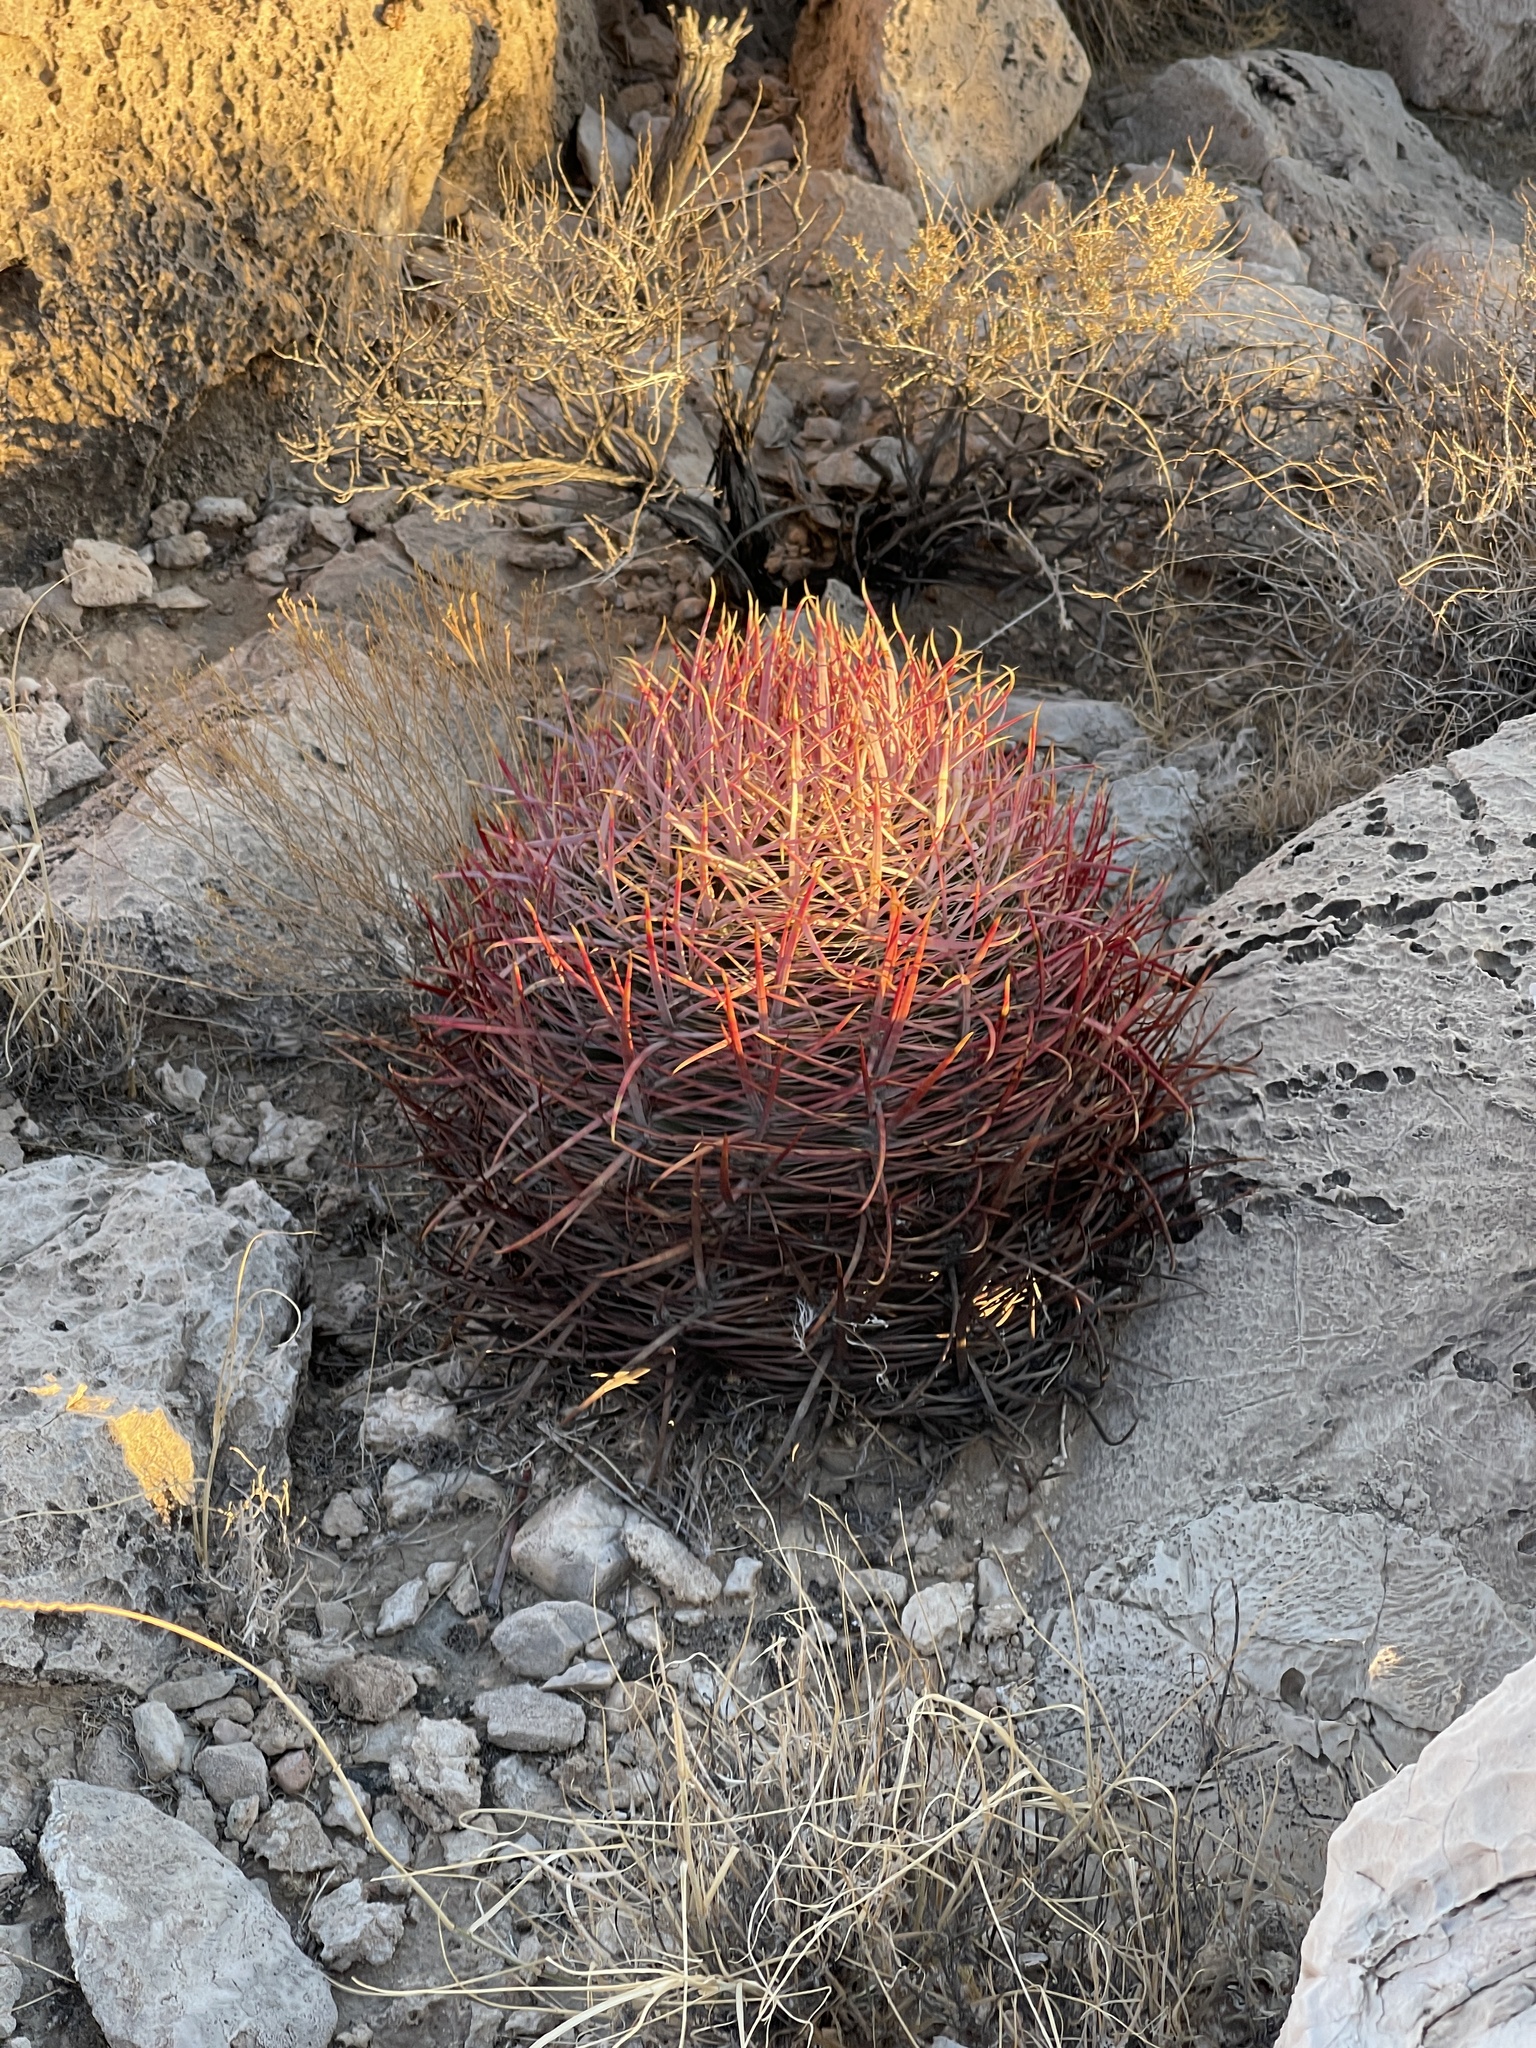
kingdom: Plantae
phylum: Tracheophyta
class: Magnoliopsida
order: Caryophyllales
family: Cactaceae
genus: Ferocactus
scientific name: Ferocactus cylindraceus
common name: California barrel cactus
